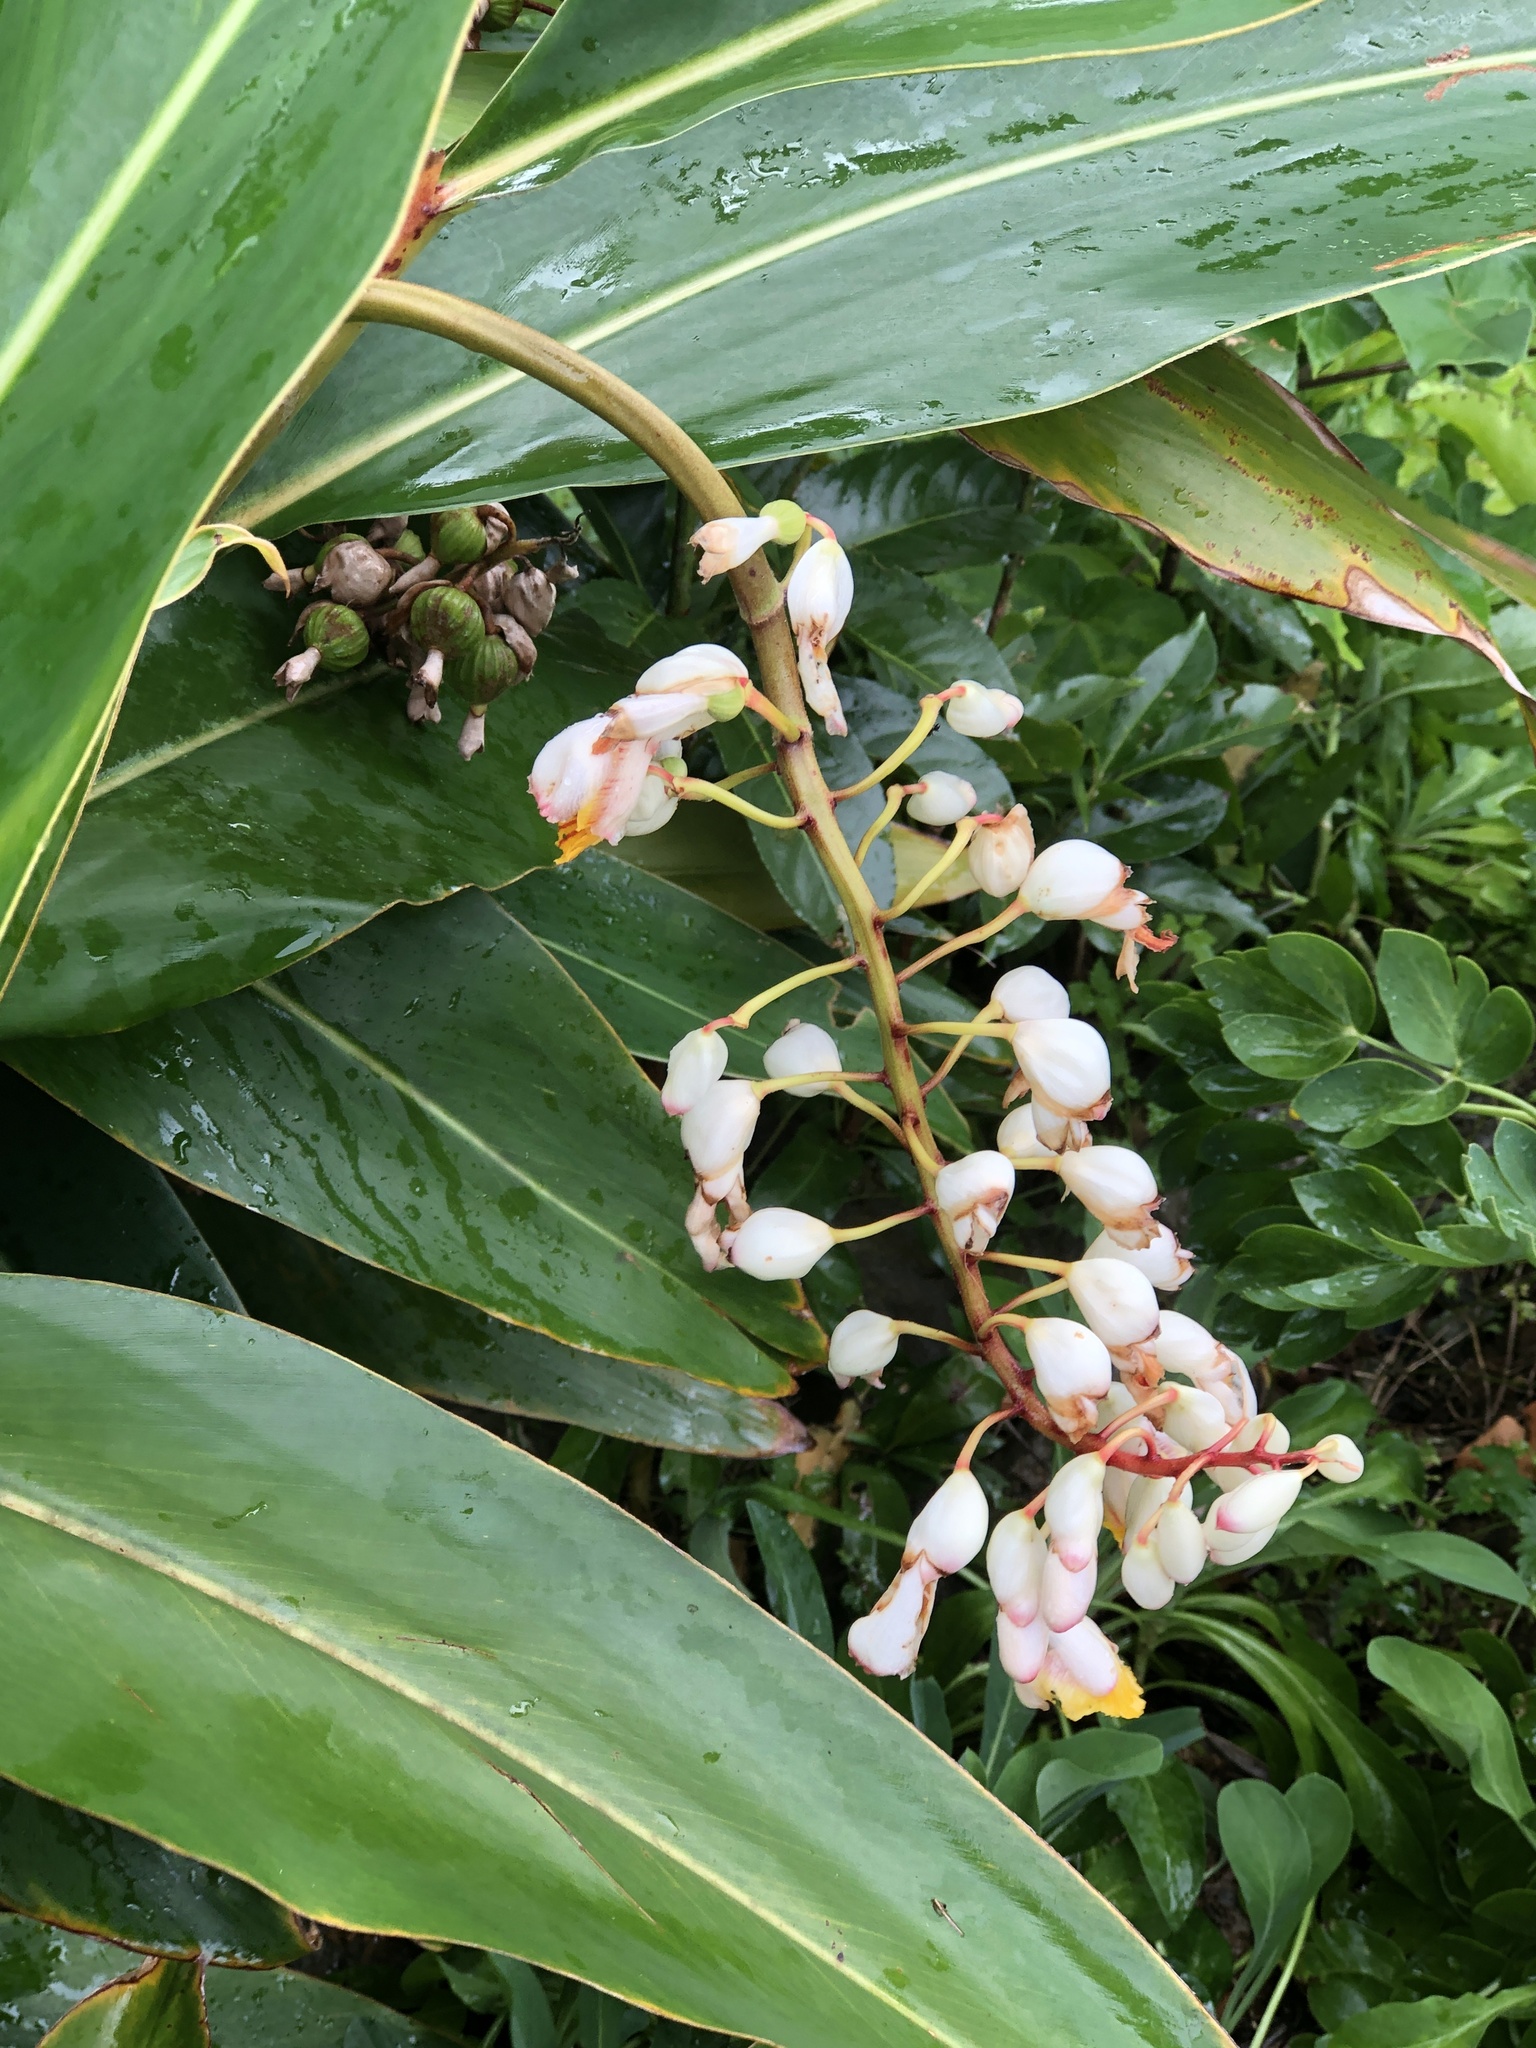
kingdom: Plantae
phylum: Tracheophyta
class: Liliopsida
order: Zingiberales
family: Zingiberaceae
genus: Alpinia
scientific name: Alpinia zerumbet
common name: Shellplant
